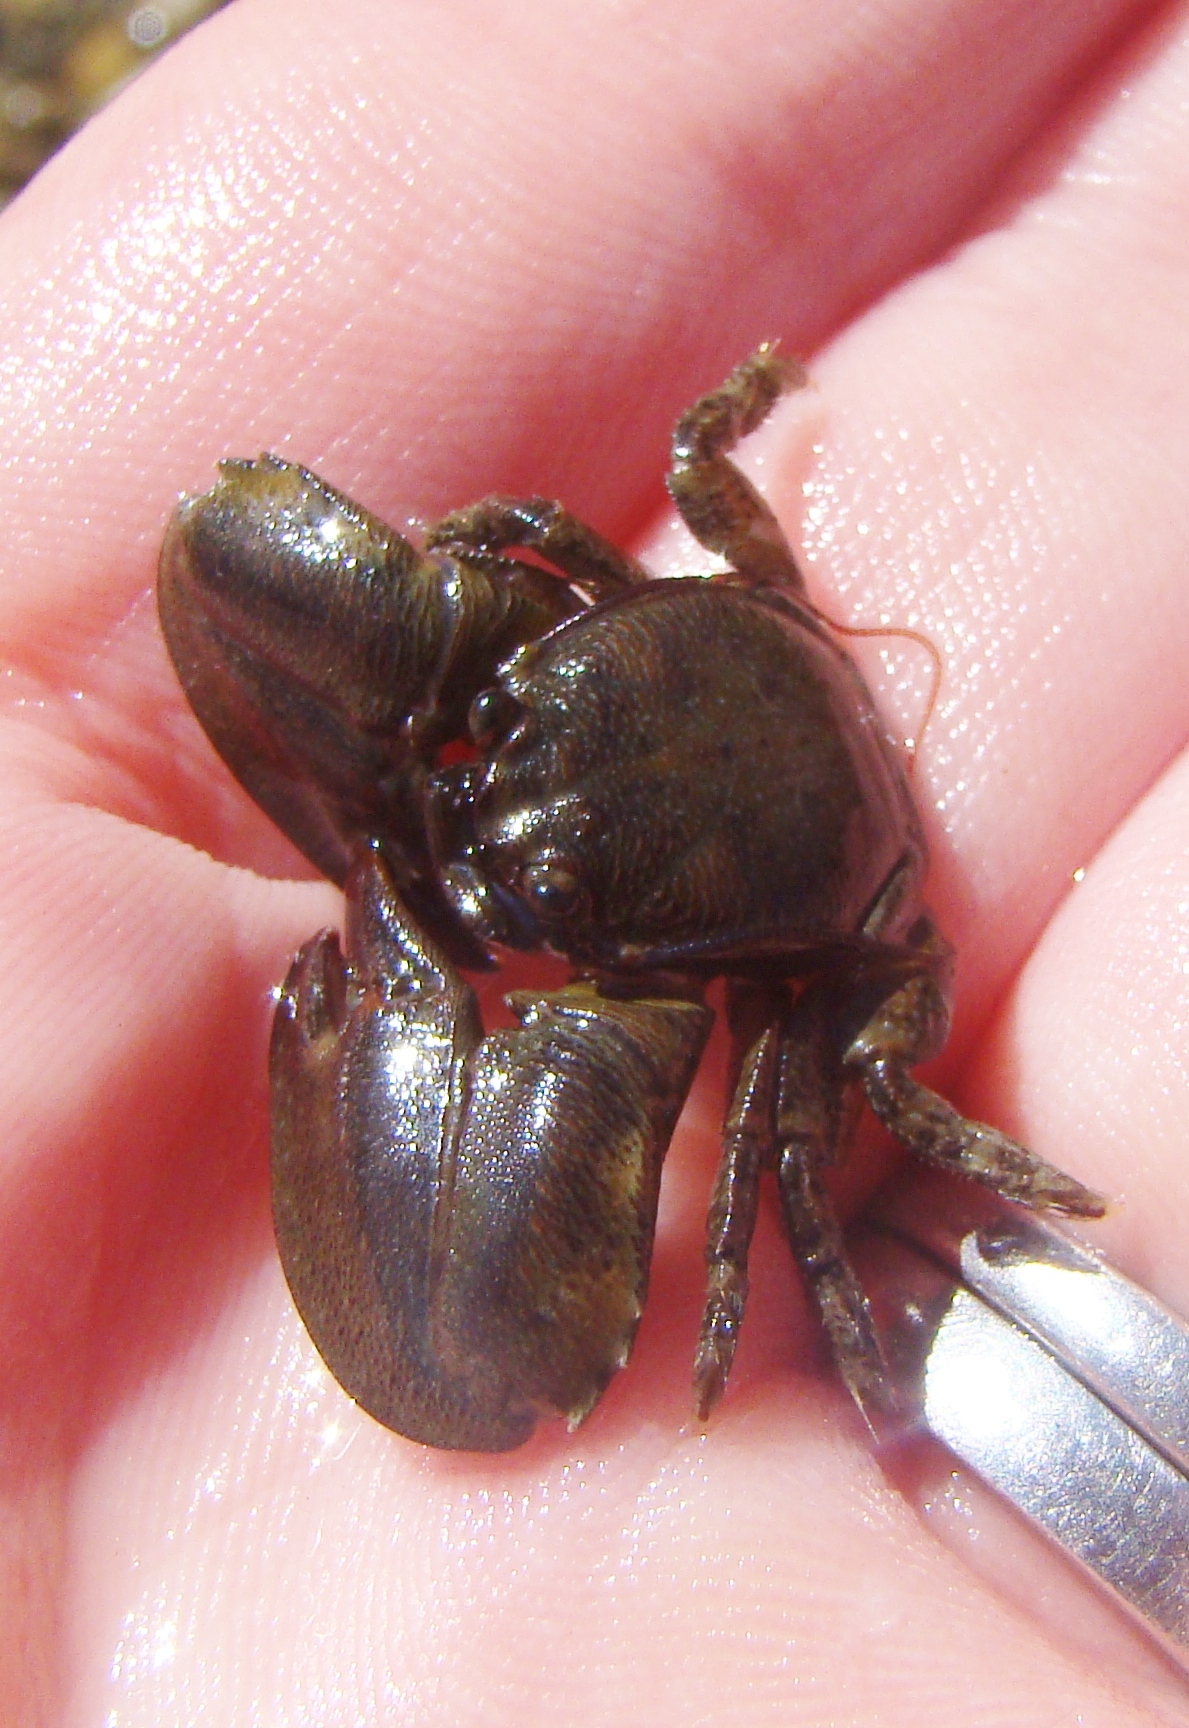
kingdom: Animalia
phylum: Arthropoda
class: Malacostraca
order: Decapoda
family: Porcellanidae
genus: Petrolisthes
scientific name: Petrolisthes elongatus
